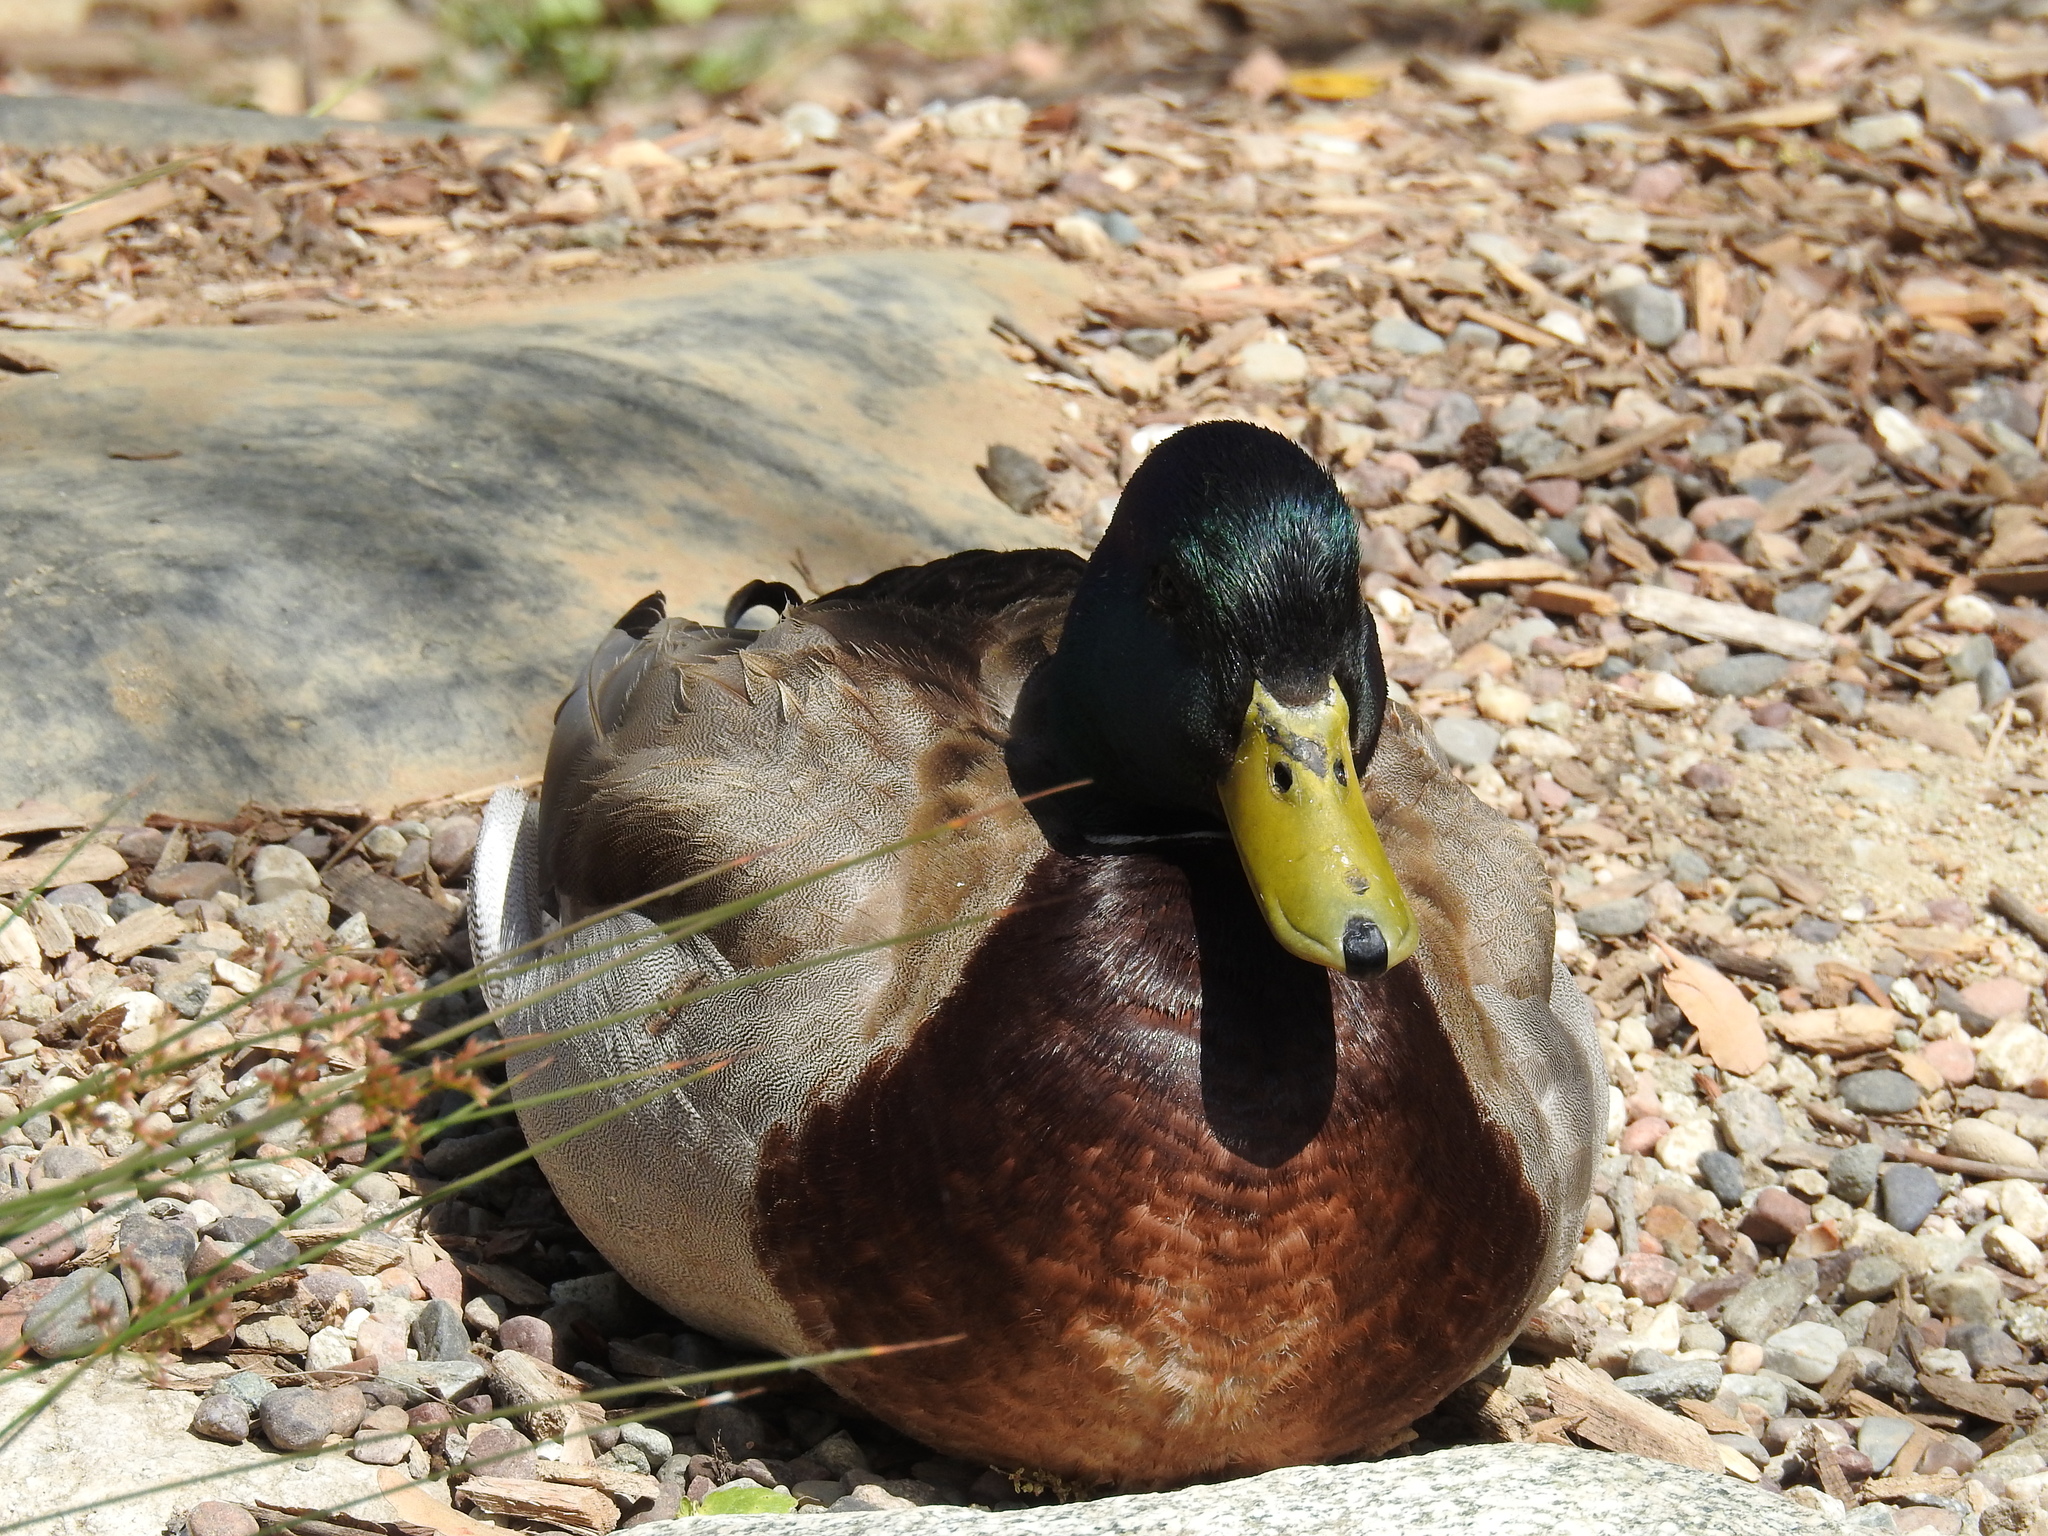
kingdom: Animalia
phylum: Chordata
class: Aves
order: Anseriformes
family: Anatidae
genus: Anas
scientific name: Anas platyrhynchos
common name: Mallard
